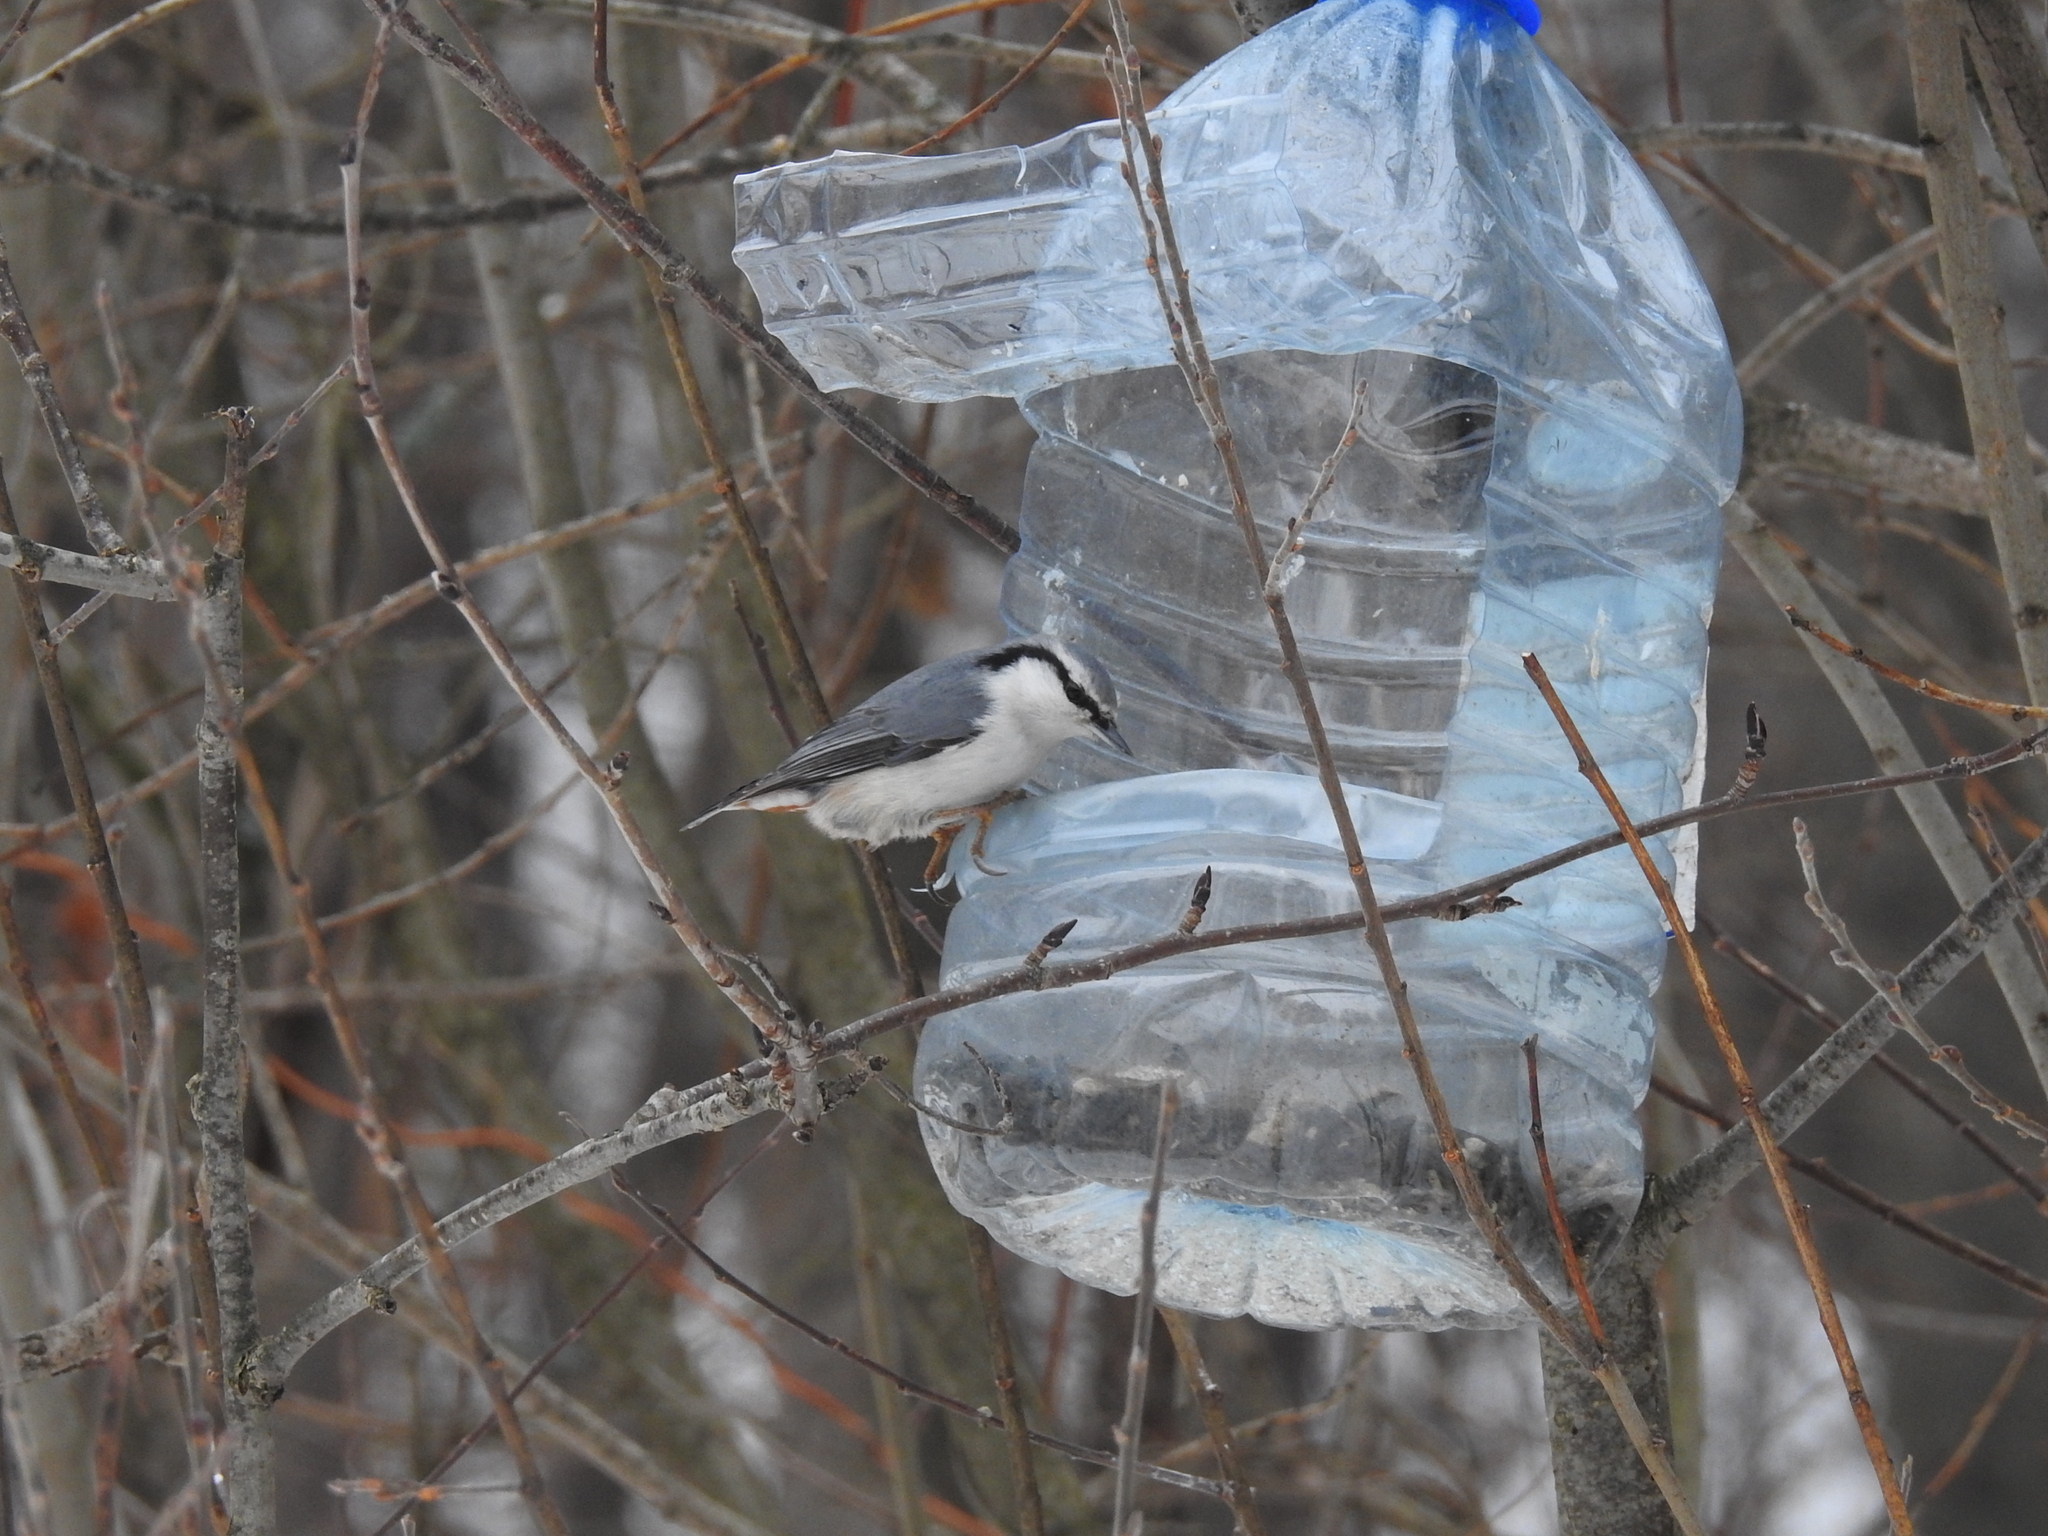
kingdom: Animalia
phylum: Chordata
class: Aves
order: Passeriformes
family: Sittidae
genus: Sitta
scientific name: Sitta europaea
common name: Eurasian nuthatch
